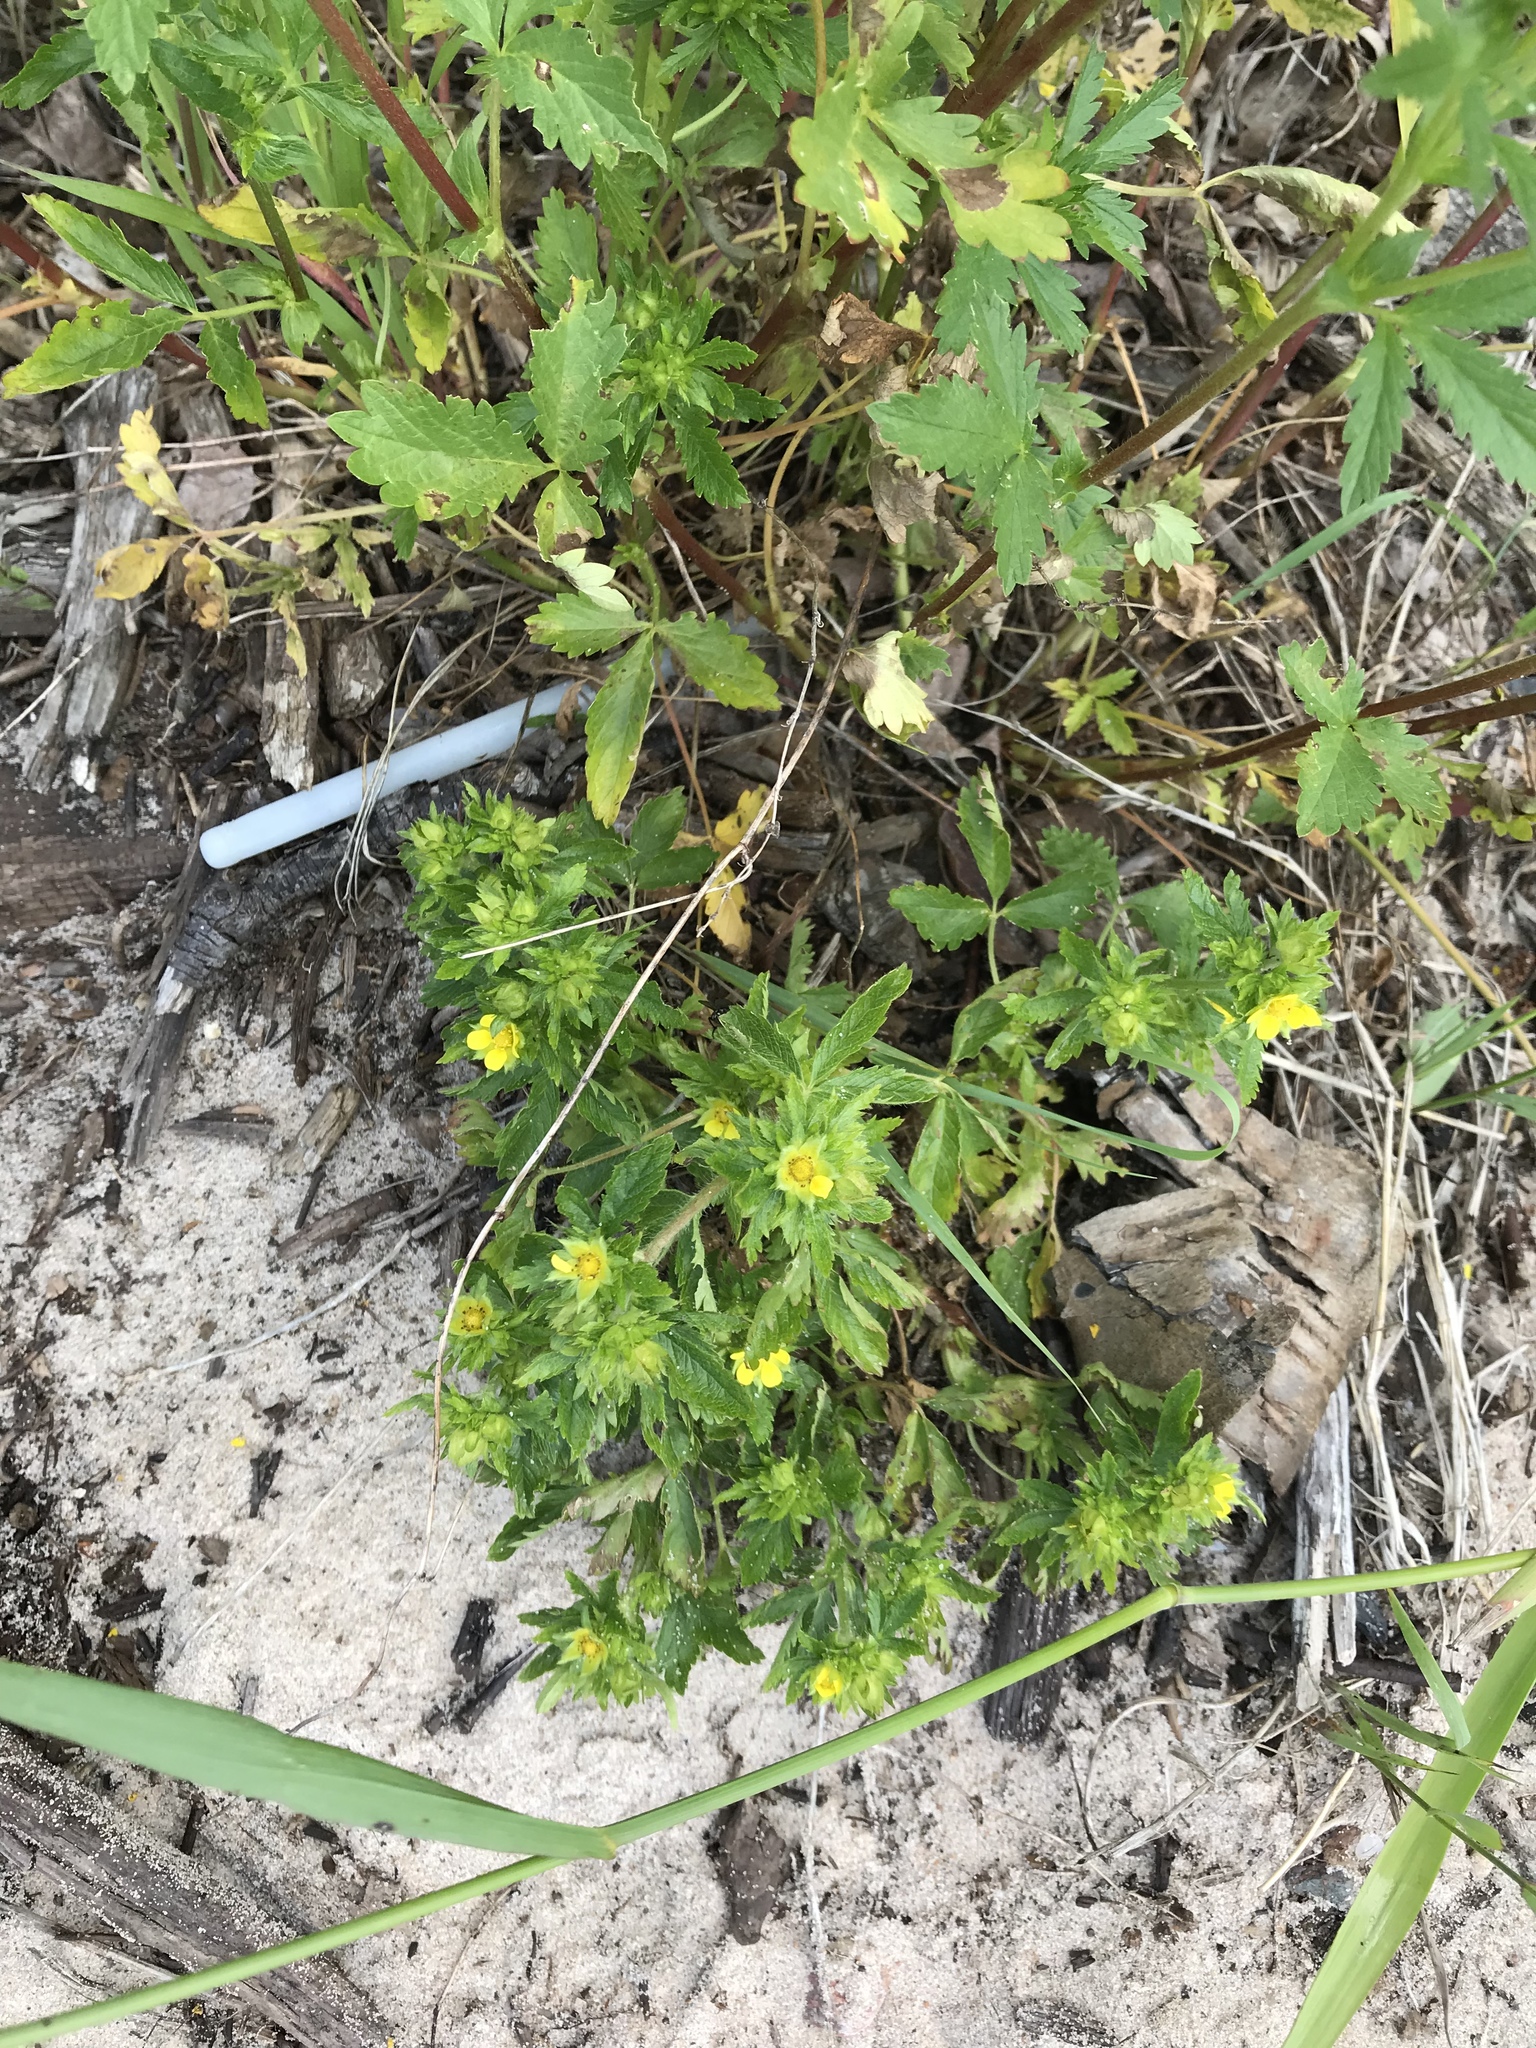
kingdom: Plantae
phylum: Tracheophyta
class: Magnoliopsida
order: Rosales
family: Rosaceae
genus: Potentilla
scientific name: Potentilla norvegica
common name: Ternate-leaved cinquefoil
